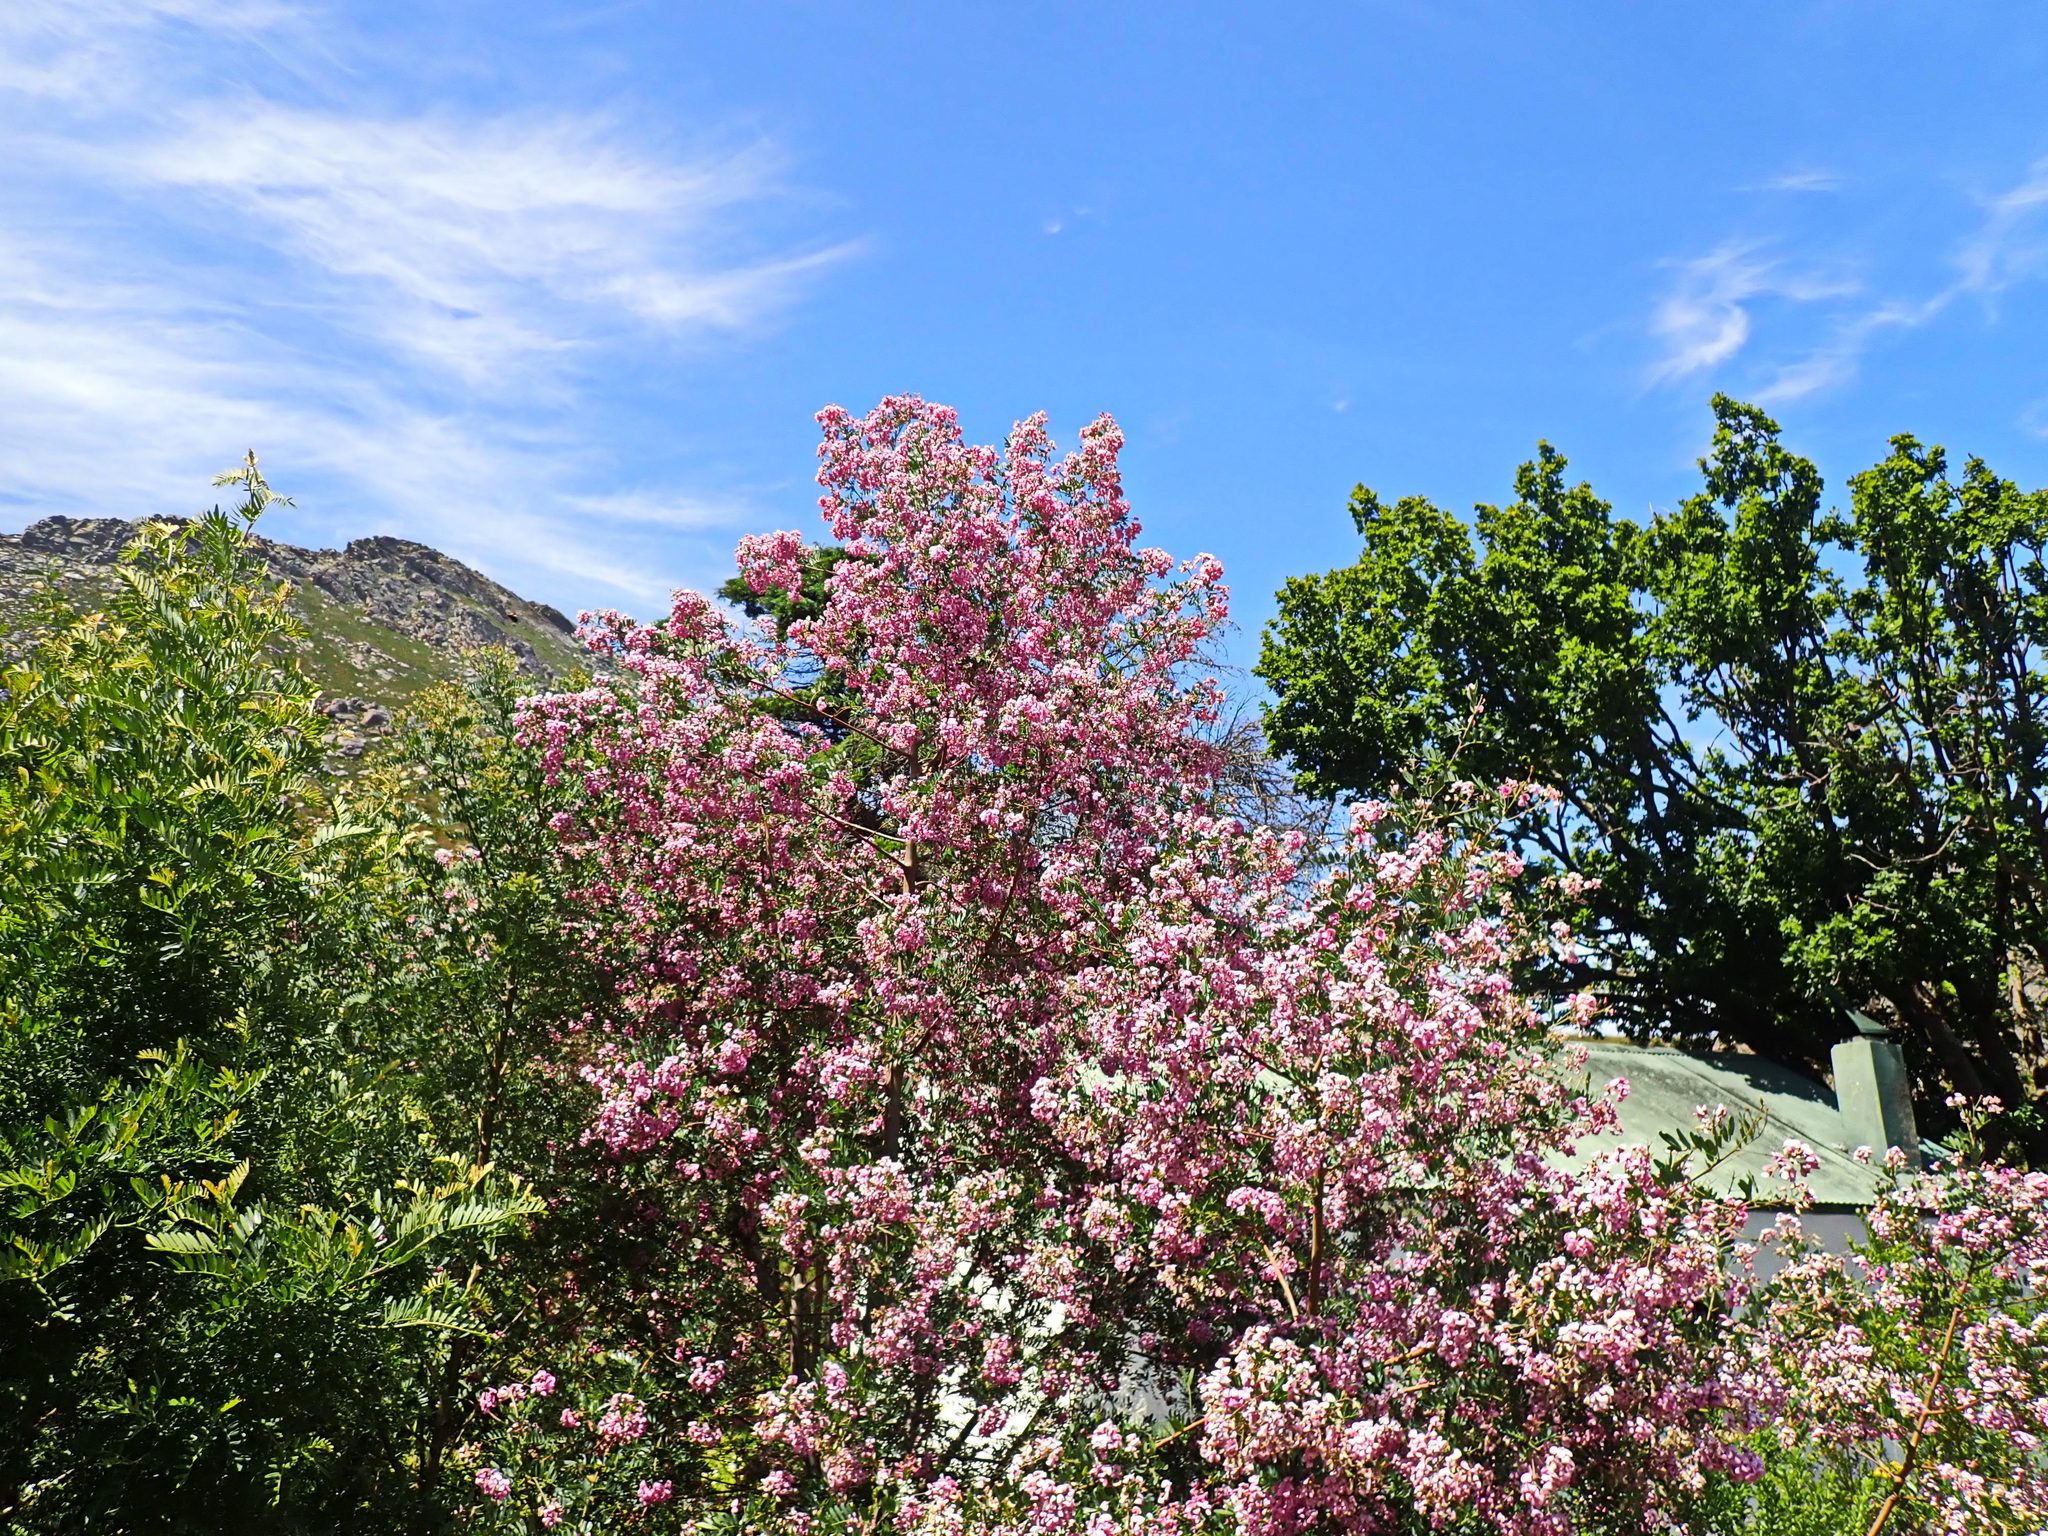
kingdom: Plantae
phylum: Tracheophyta
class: Magnoliopsida
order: Fabales
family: Fabaceae
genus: Virgilia
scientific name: Virgilia oroboides
